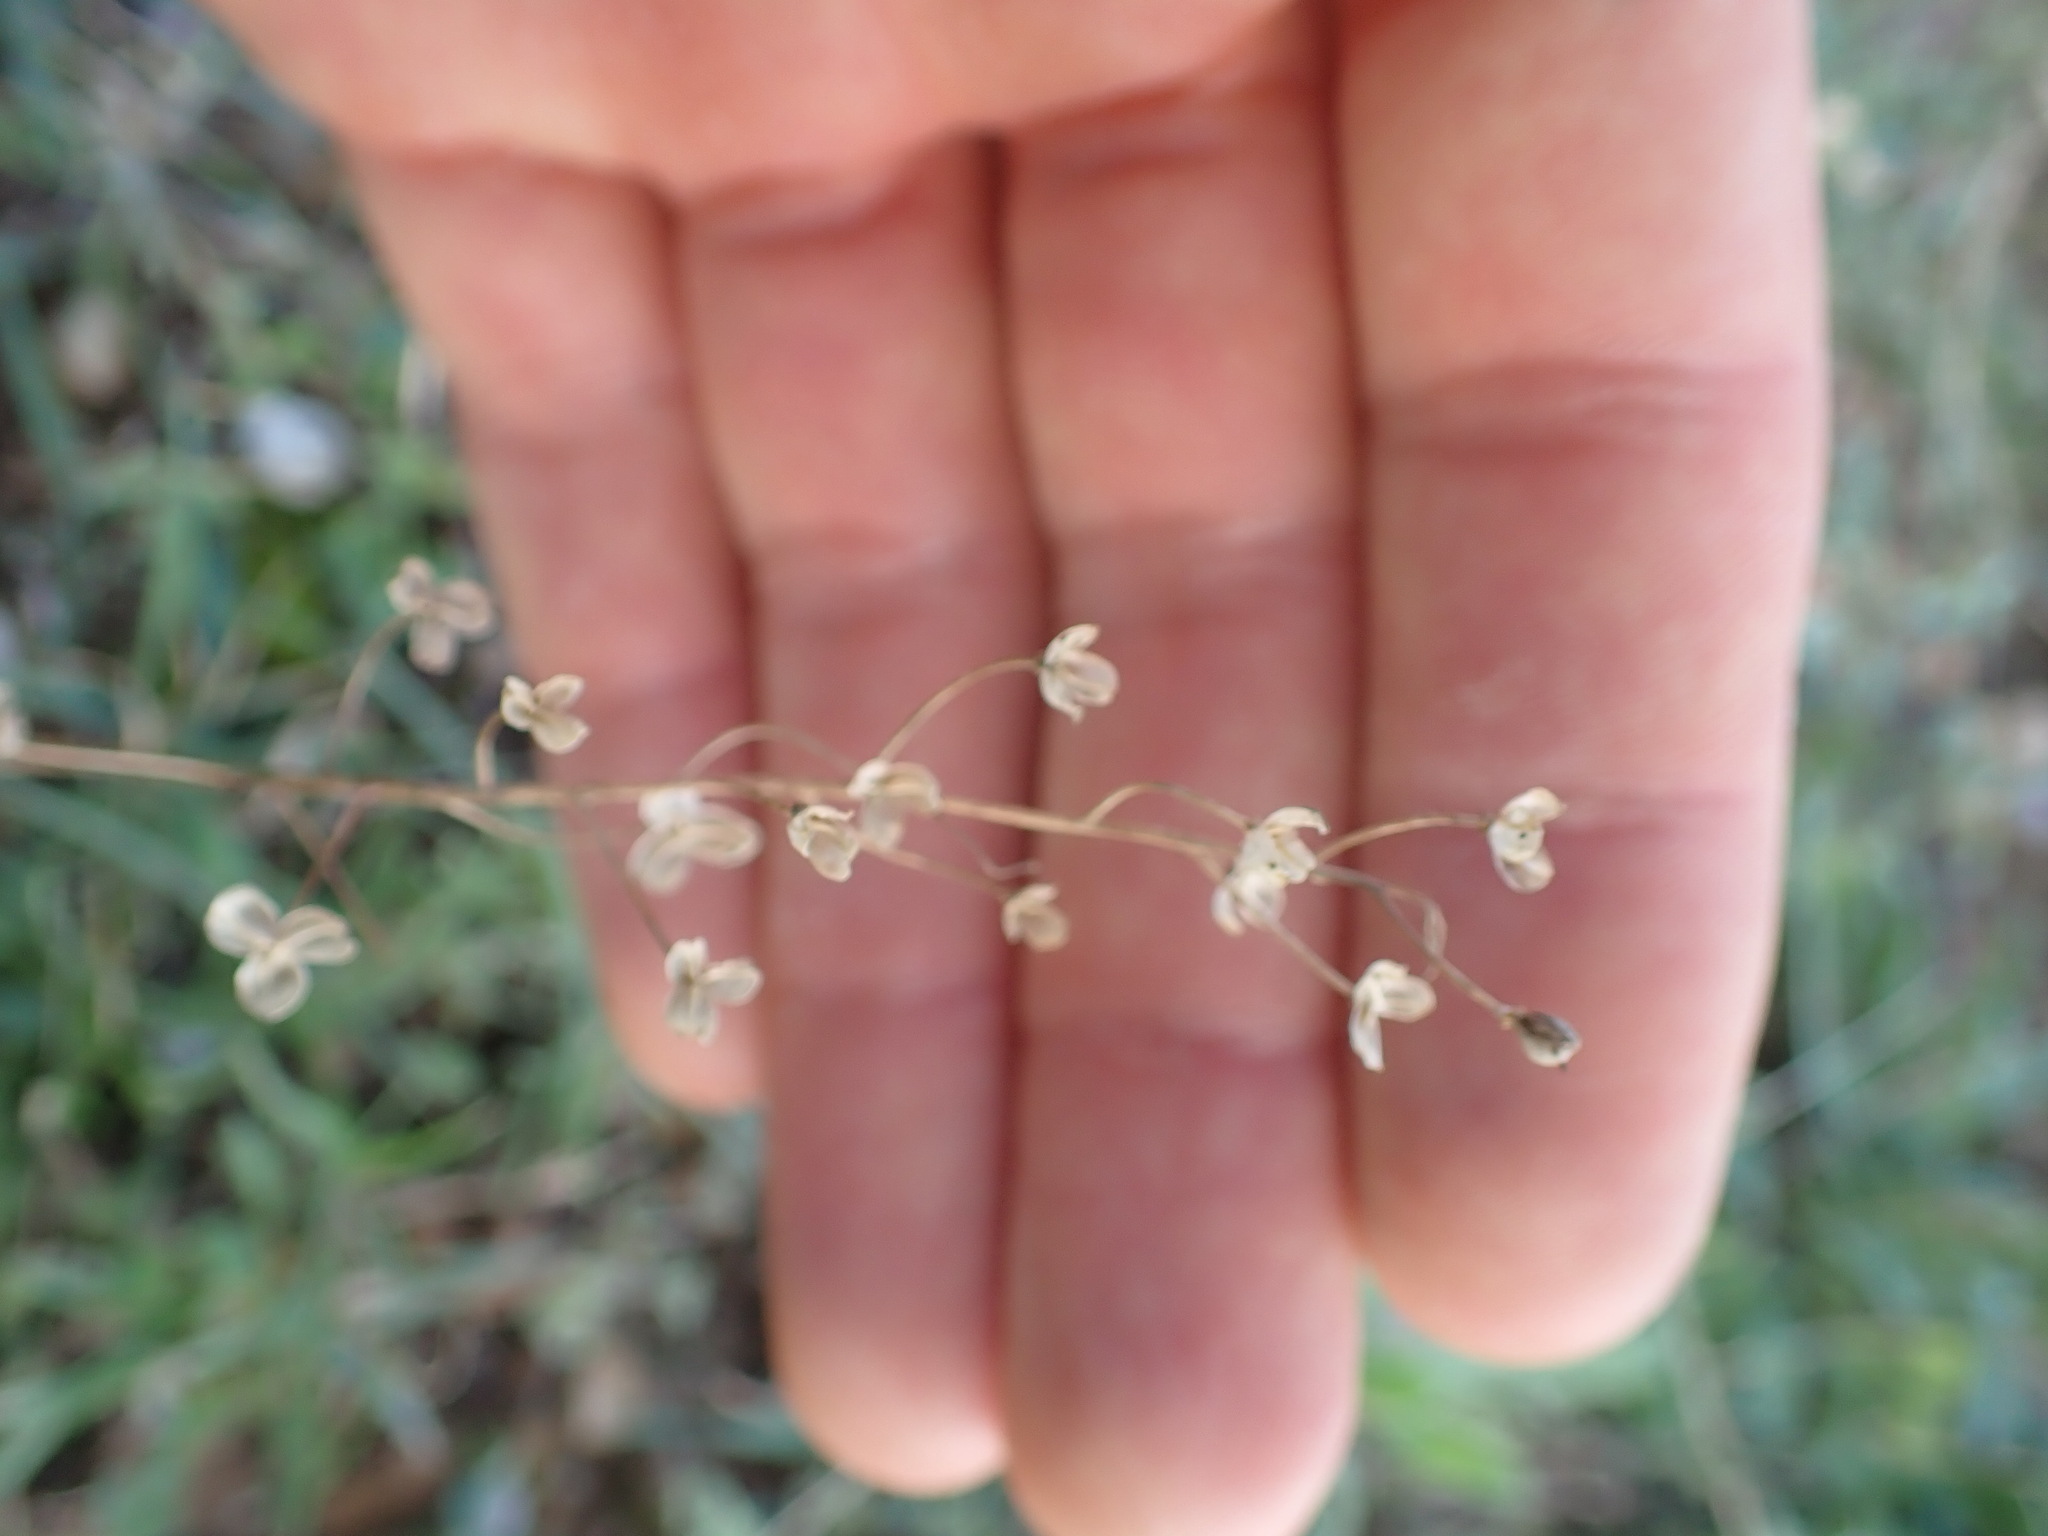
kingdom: Plantae
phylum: Tracheophyta
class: Liliopsida
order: Asparagales
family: Asparagaceae
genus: Prospero
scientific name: Prospero autumnale
